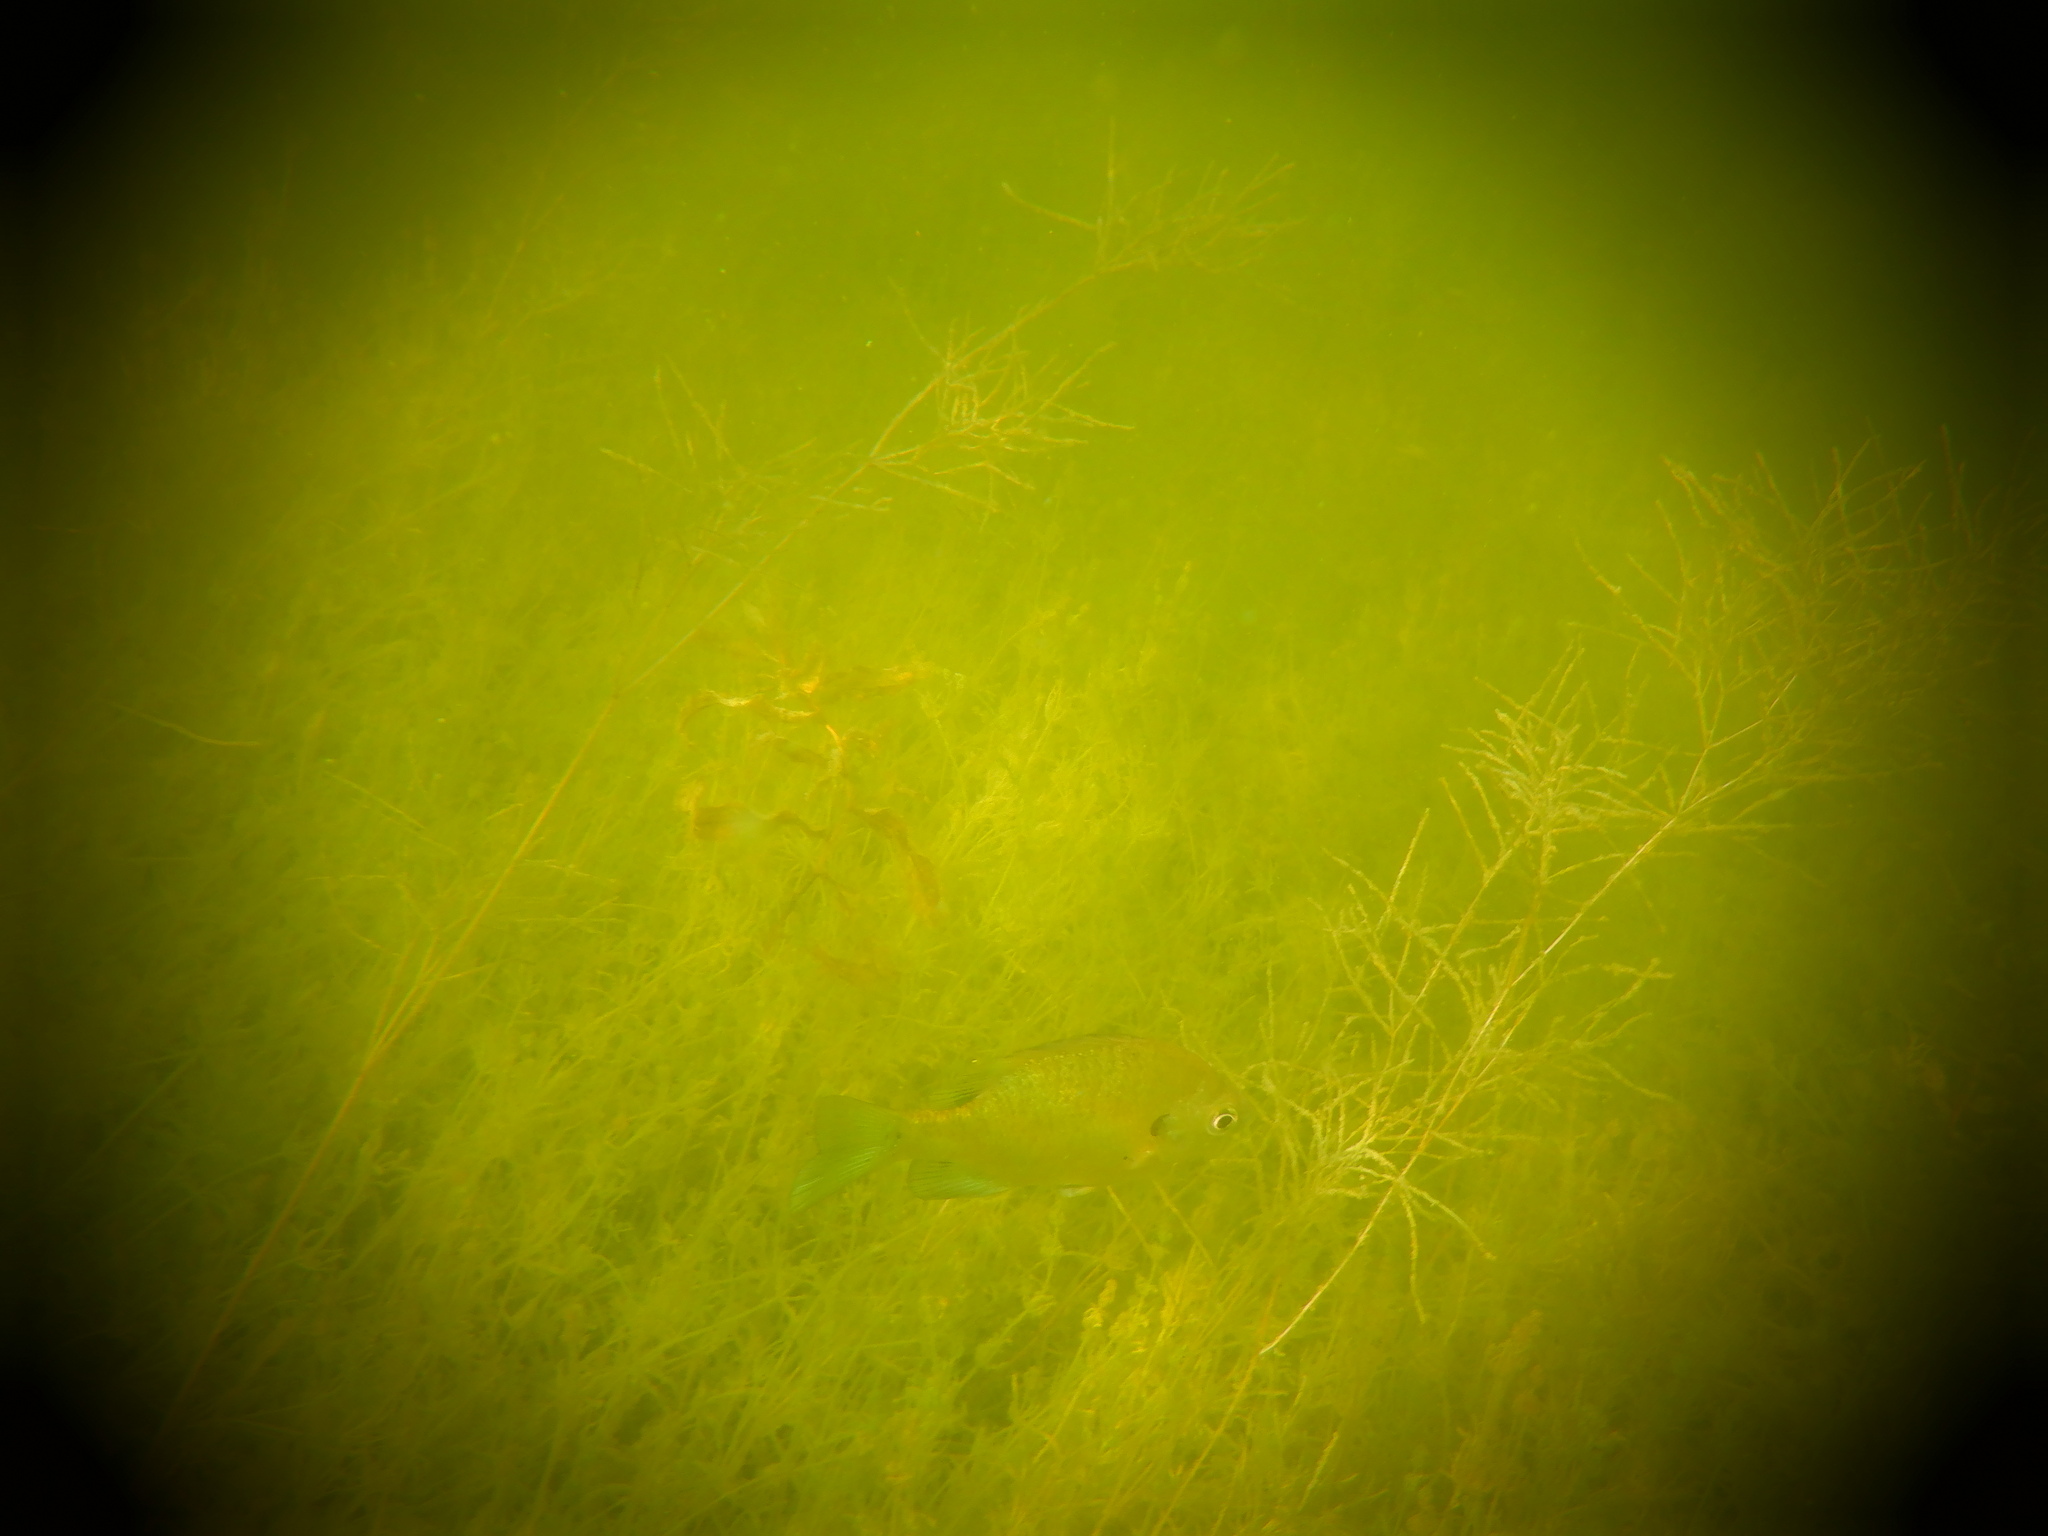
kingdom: Animalia
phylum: Chordata
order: Perciformes
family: Centrarchidae
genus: Lepomis
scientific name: Lepomis macrochirus
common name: Bluegill
